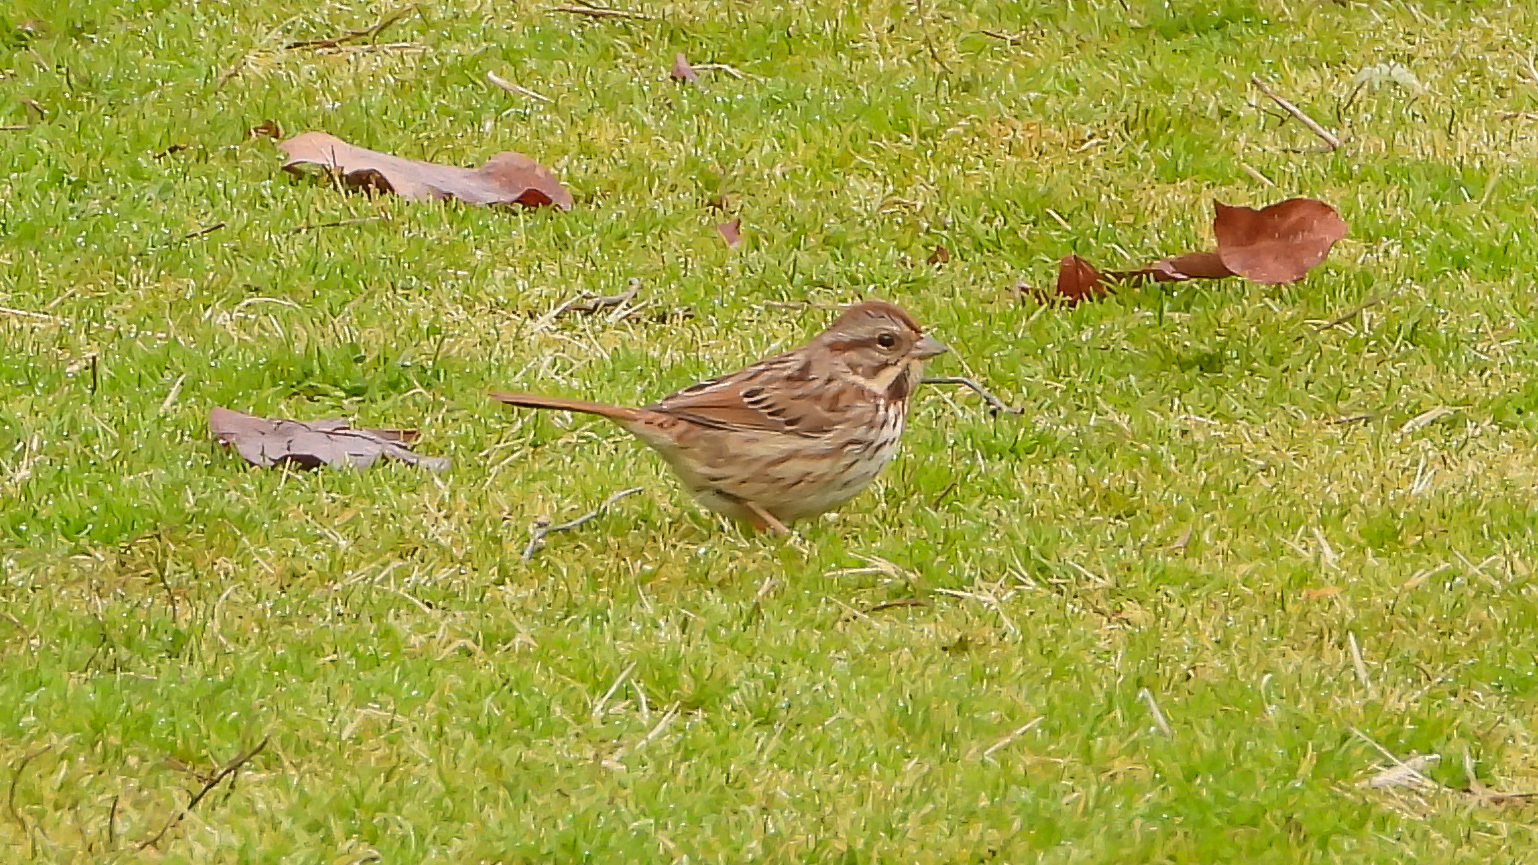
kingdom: Animalia
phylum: Chordata
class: Aves
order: Passeriformes
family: Passerellidae
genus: Melospiza
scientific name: Melospiza melodia
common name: Song sparrow
